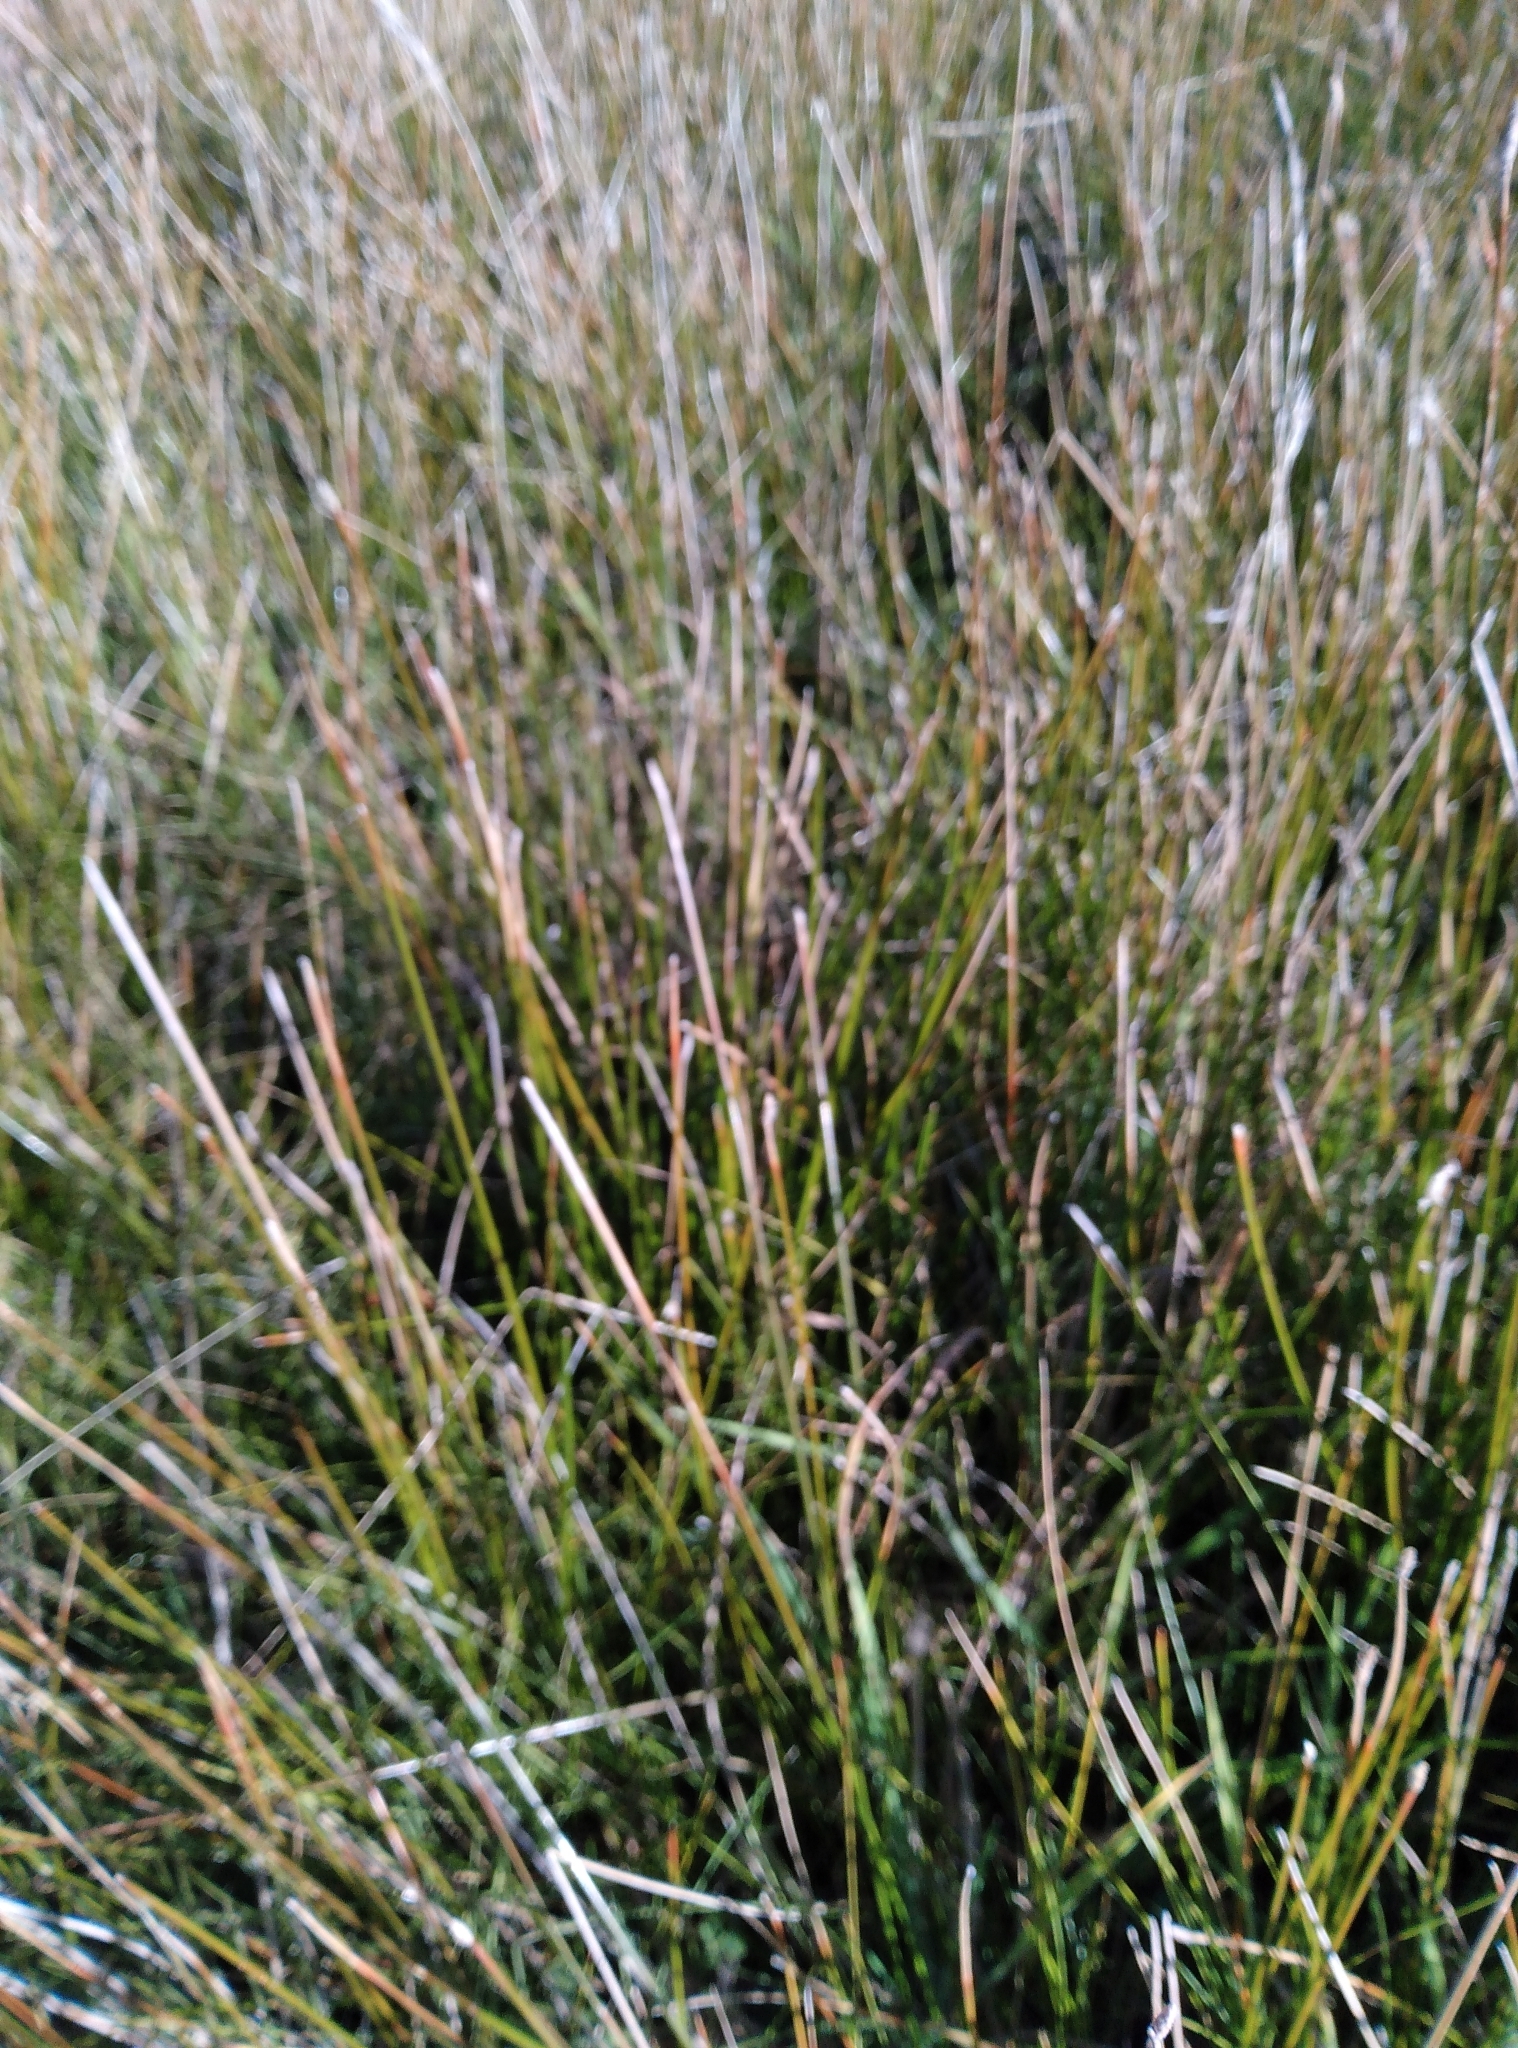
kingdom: Plantae
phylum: Tracheophyta
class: Liliopsida
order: Poales
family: Cyperaceae
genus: Eleocharis
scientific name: Eleocharis acuta
